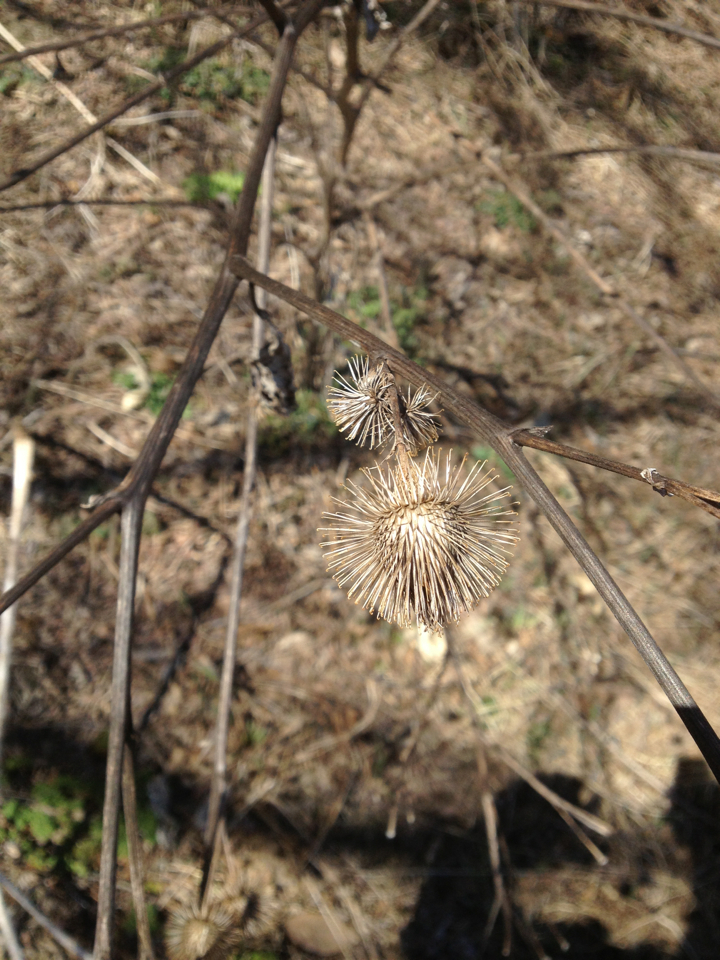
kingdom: Plantae
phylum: Tracheophyta
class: Magnoliopsida
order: Asterales
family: Asteraceae
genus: Arctium
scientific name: Arctium minus
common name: Lesser burdock
